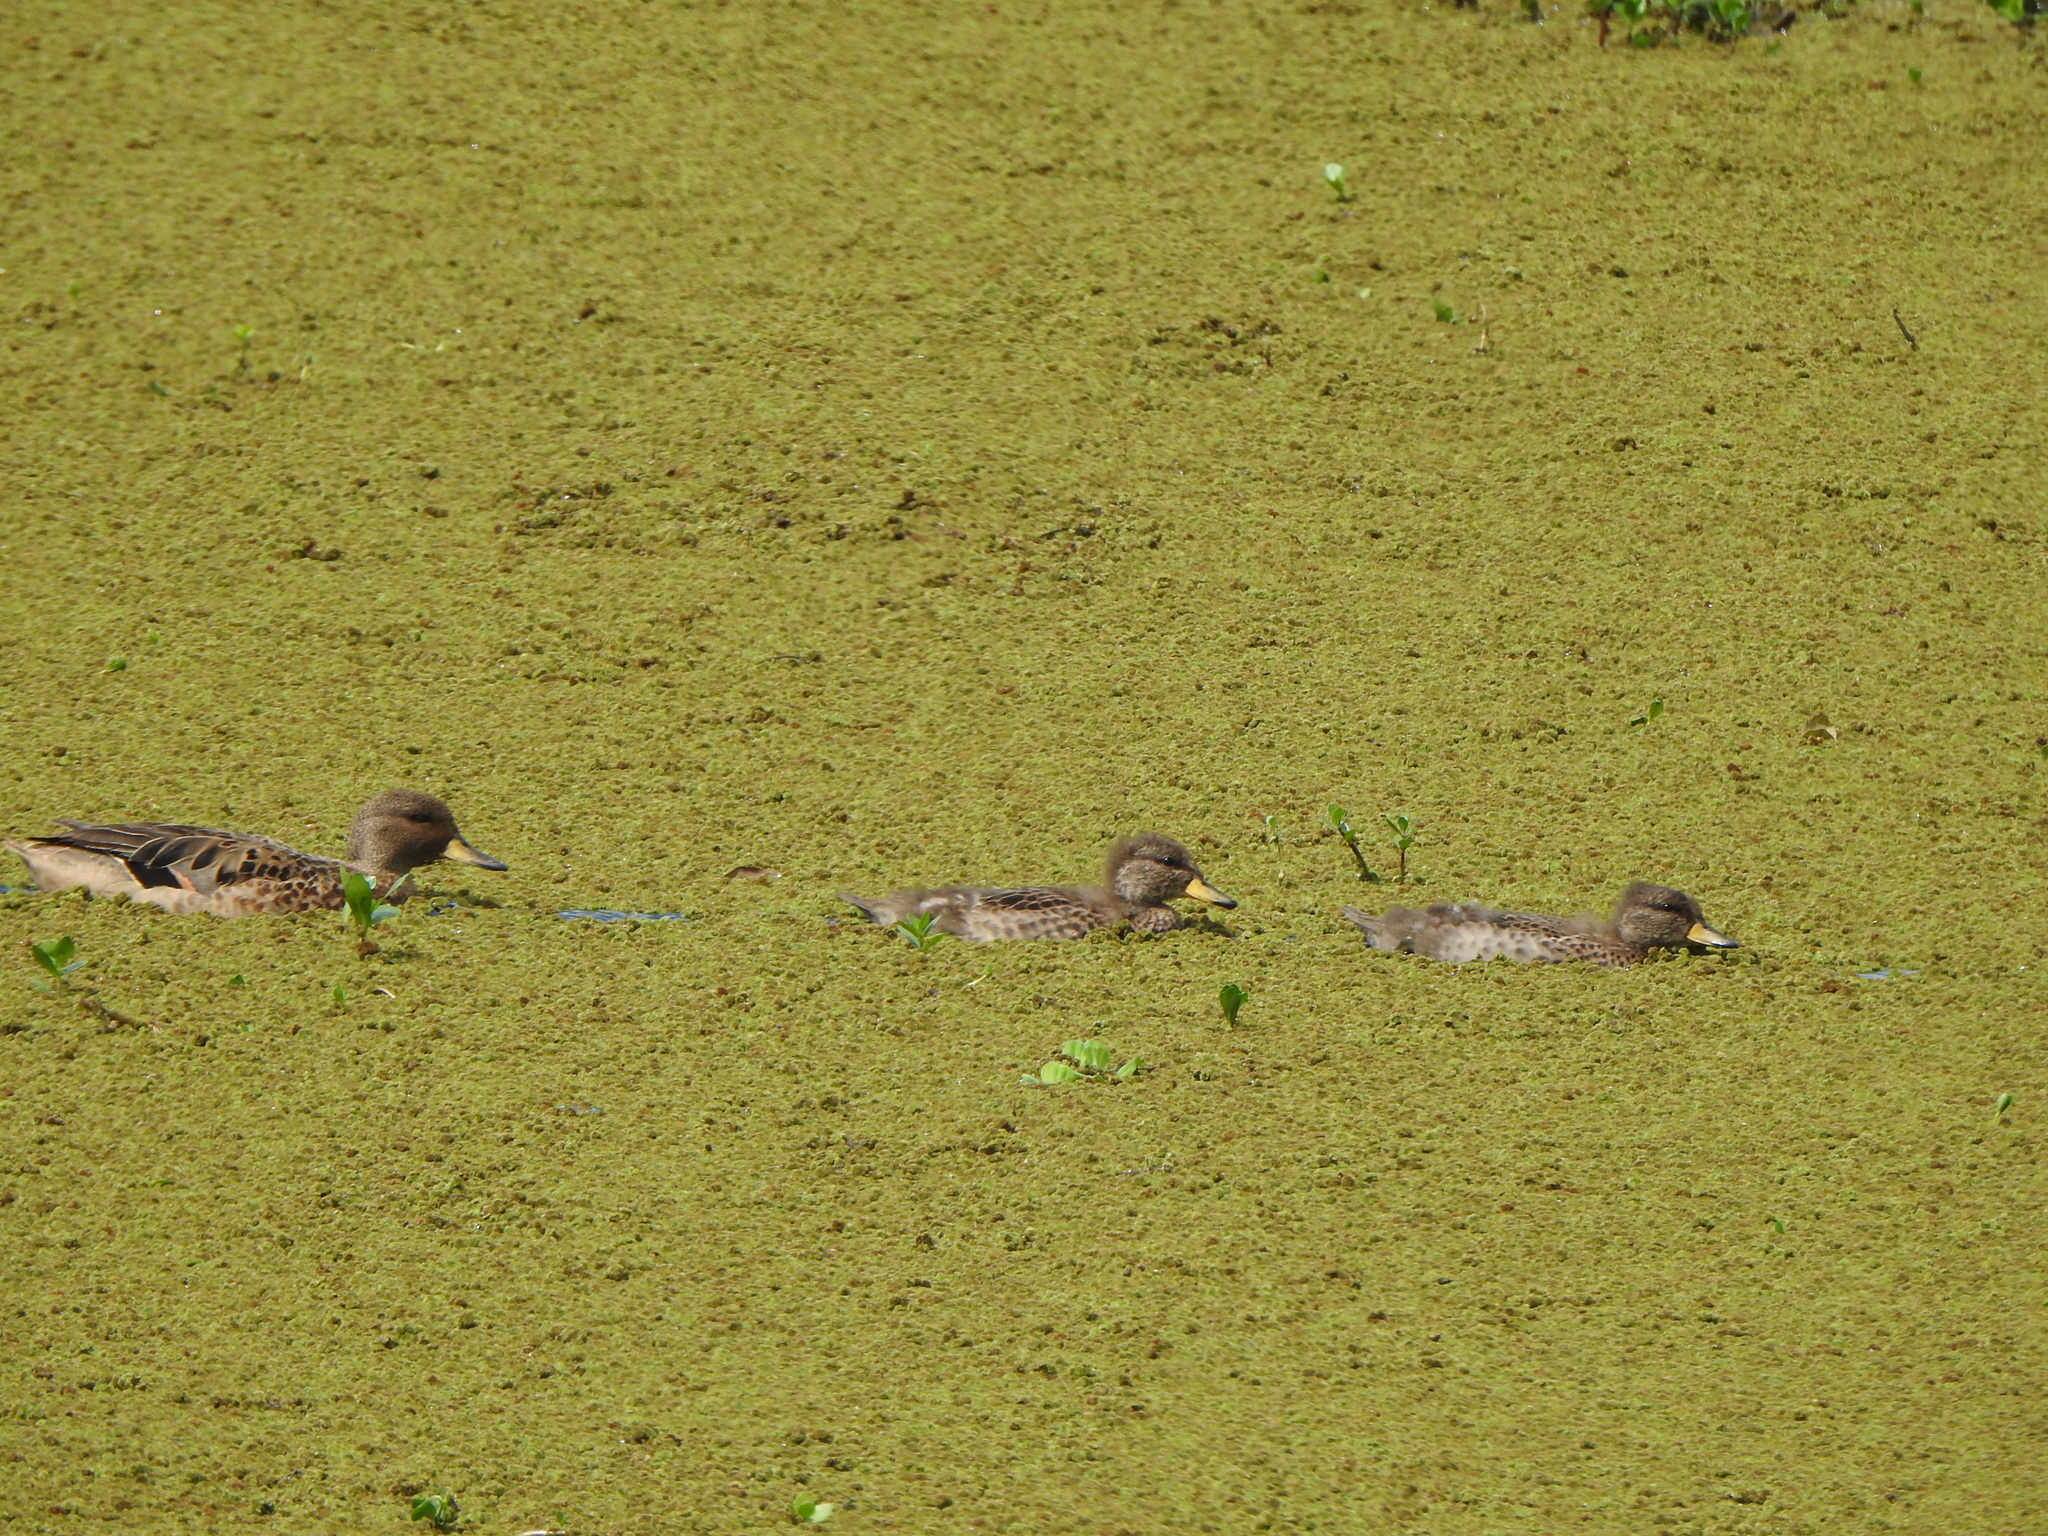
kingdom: Animalia
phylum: Chordata
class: Aves
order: Anseriformes
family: Anatidae
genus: Anas
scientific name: Anas flavirostris
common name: Yellow-billed teal
